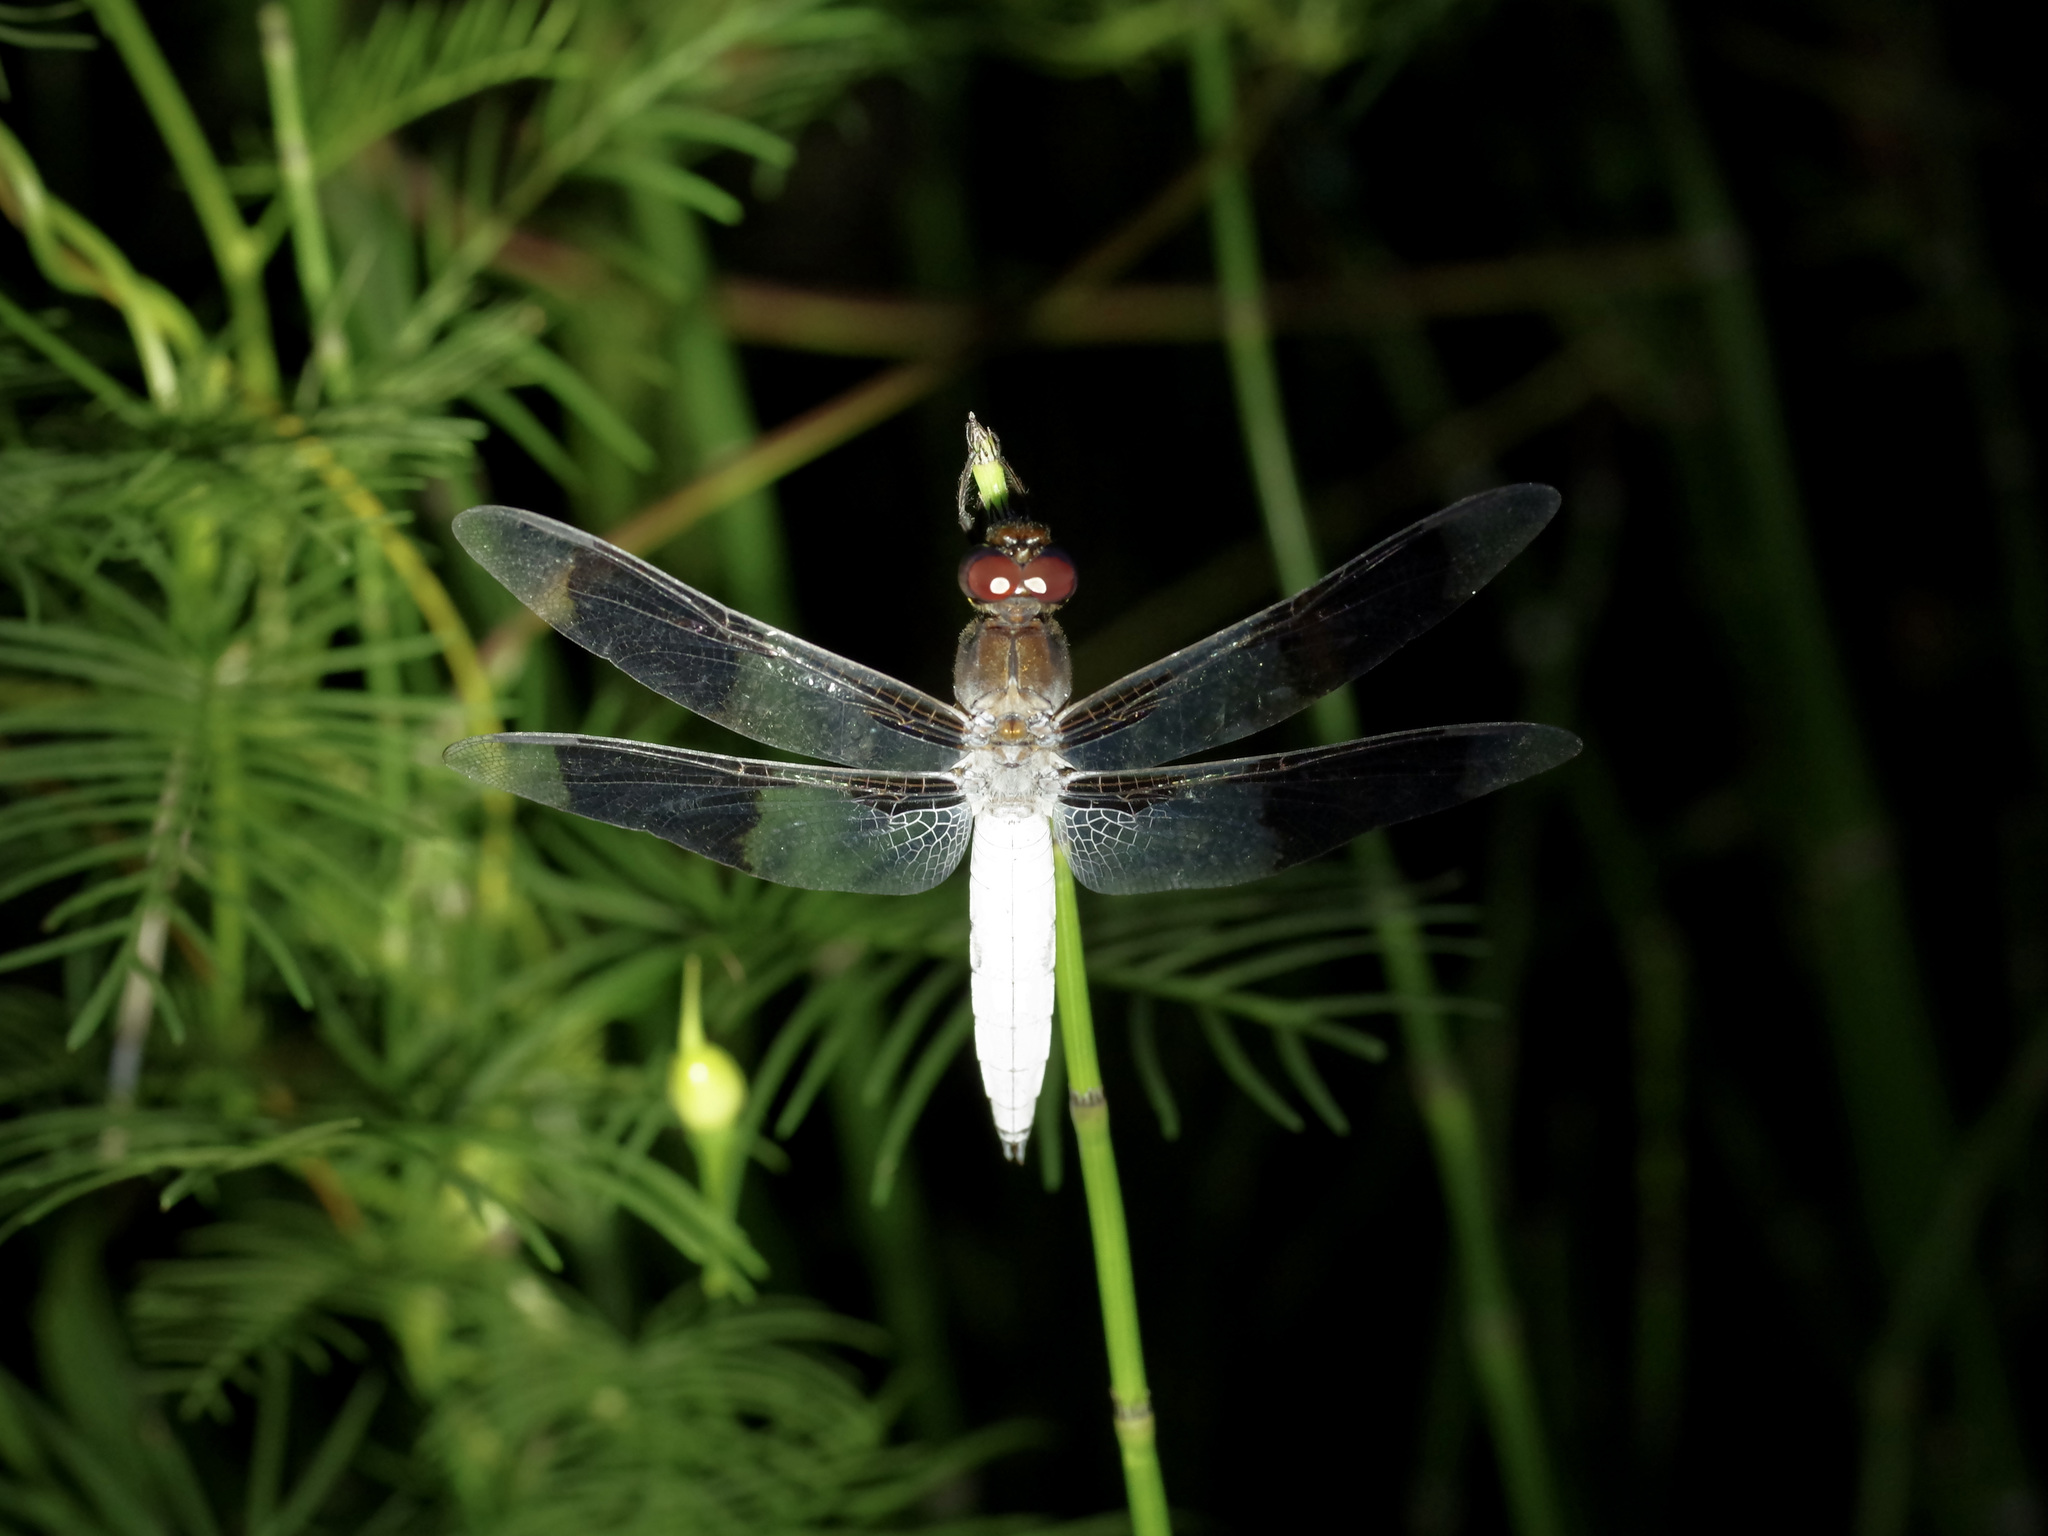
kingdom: Animalia
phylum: Arthropoda
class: Insecta
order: Odonata
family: Libellulidae
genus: Plathemis
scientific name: Plathemis lydia
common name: Common whitetail
